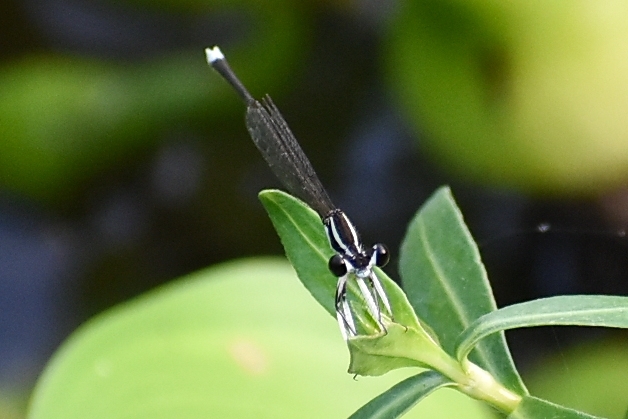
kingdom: Animalia
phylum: Arthropoda
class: Insecta
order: Odonata
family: Platycnemididae
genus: Pseudocopera
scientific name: Pseudocopera ciliata
